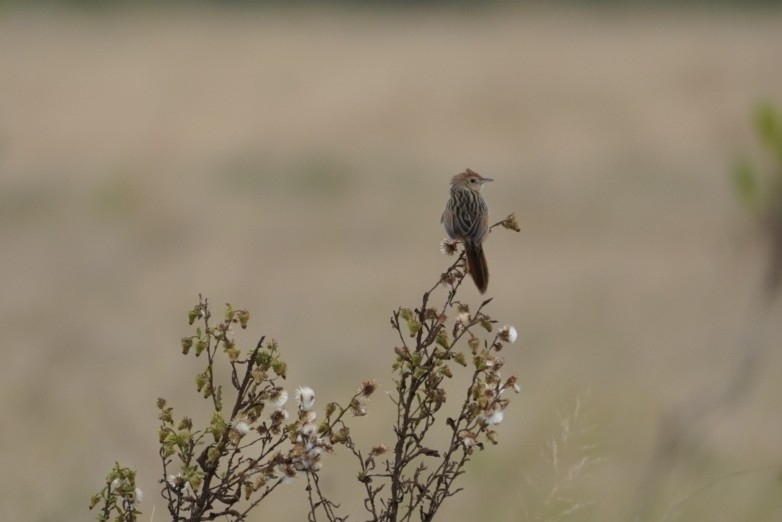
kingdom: Animalia
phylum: Chordata
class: Aves
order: Passeriformes
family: Cisticolidae
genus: Cisticola
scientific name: Cisticola lais
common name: Wailing cisticola
